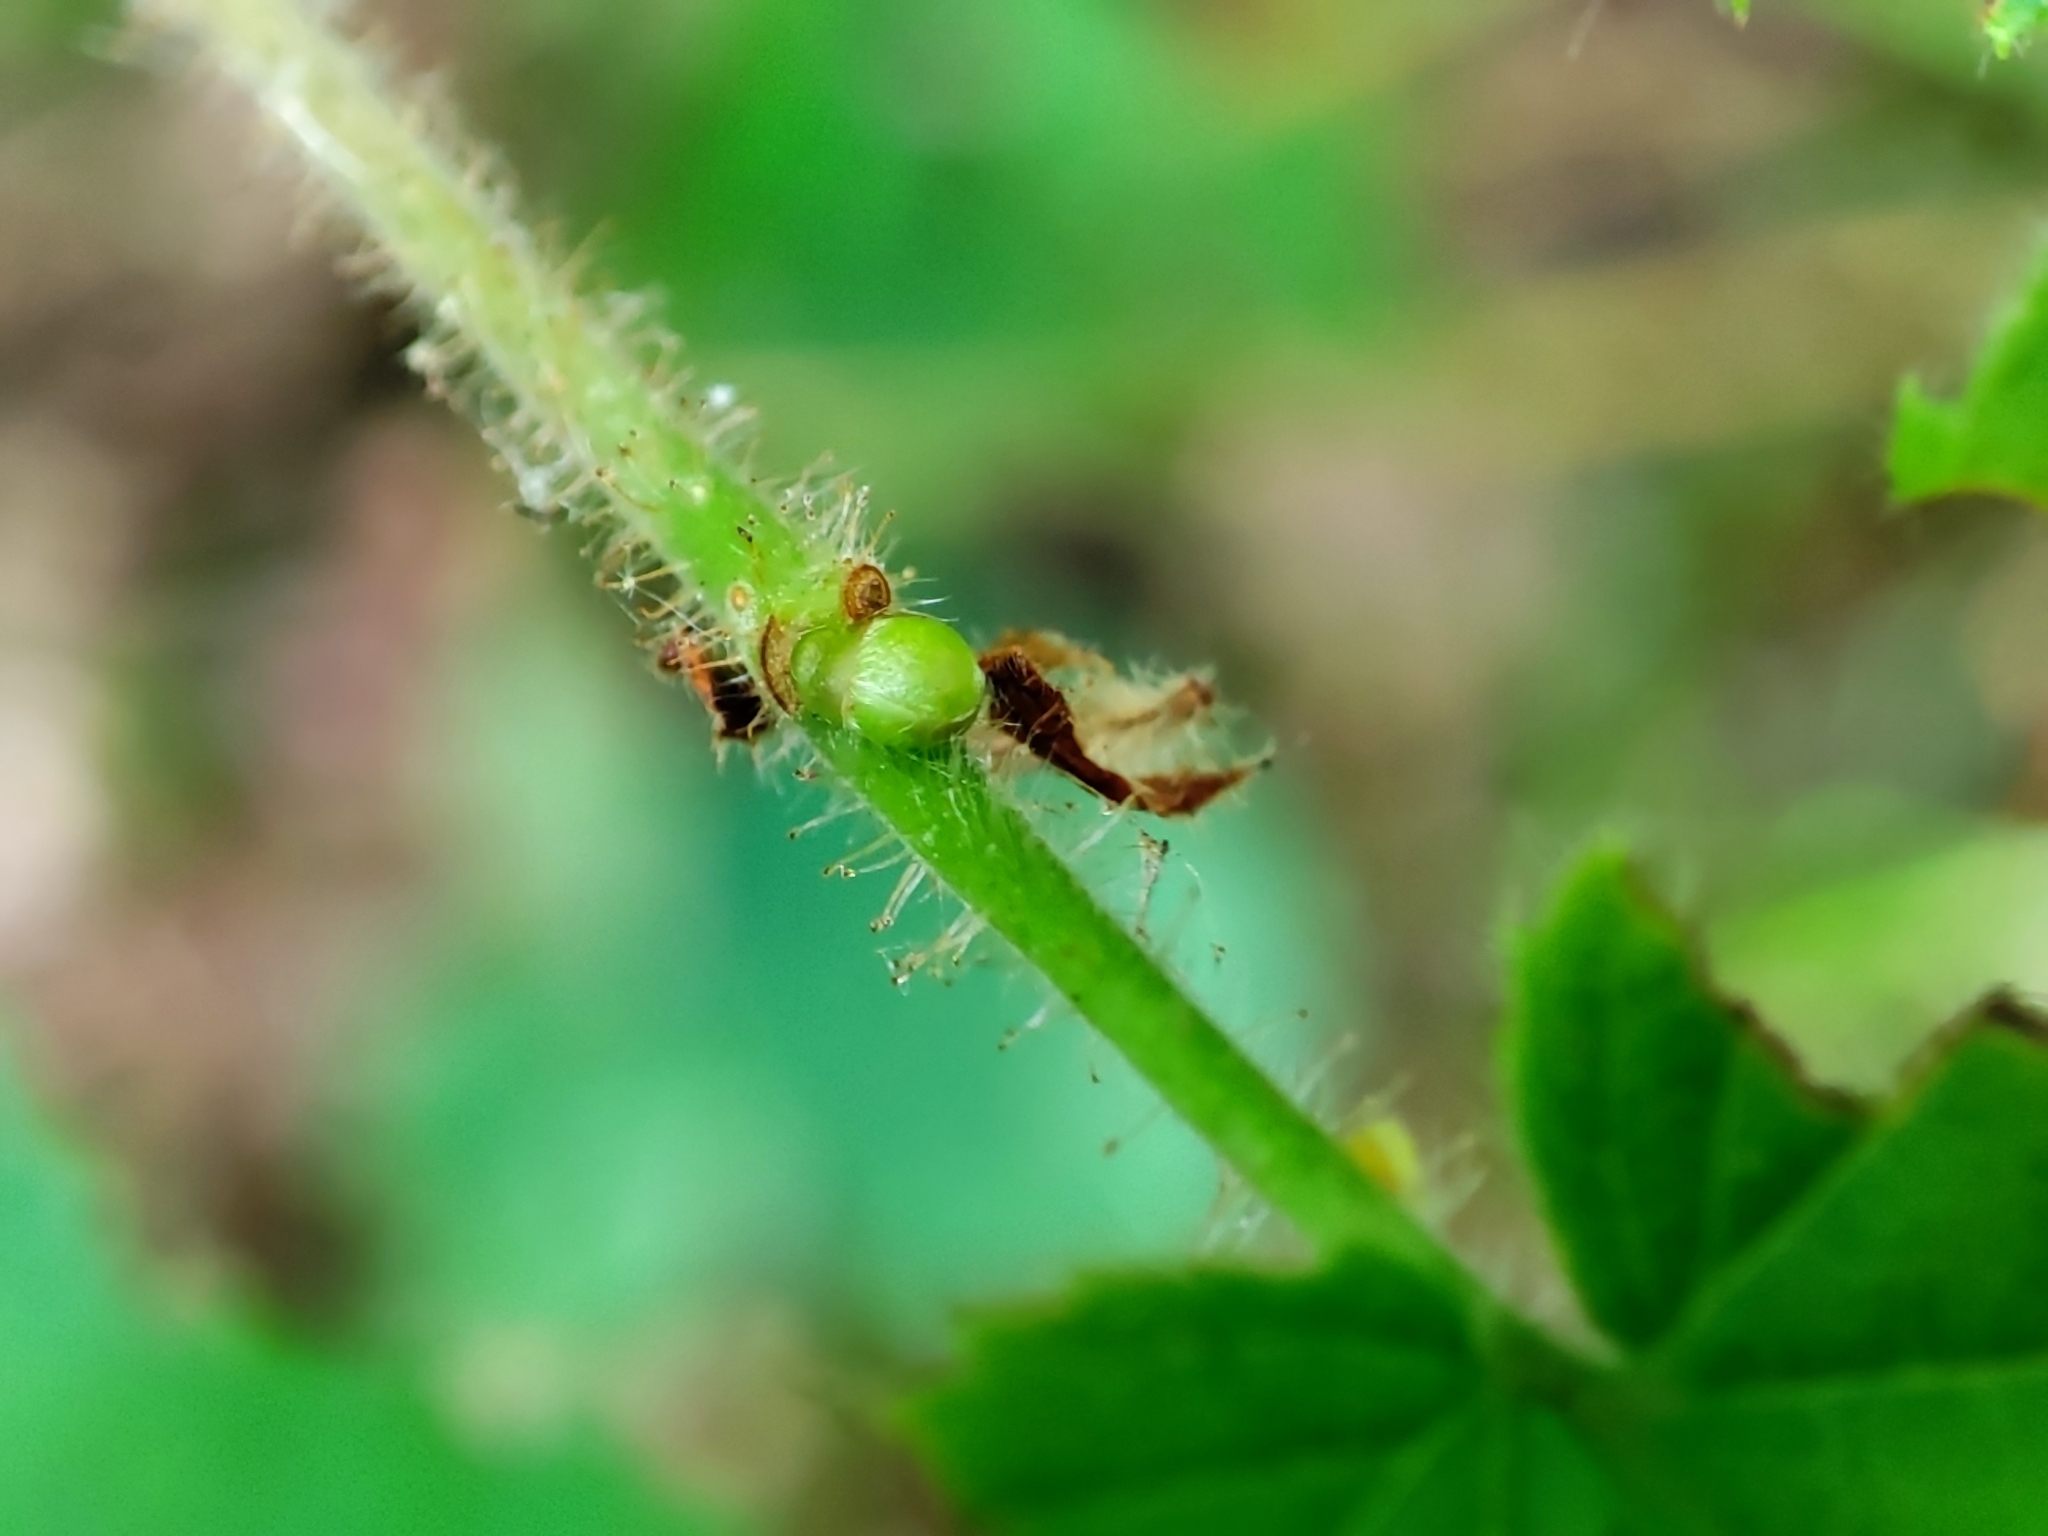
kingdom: Plantae
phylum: Tracheophyta
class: Magnoliopsida
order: Fagales
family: Betulaceae
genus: Corylus
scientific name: Corylus avellana
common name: European hazel
